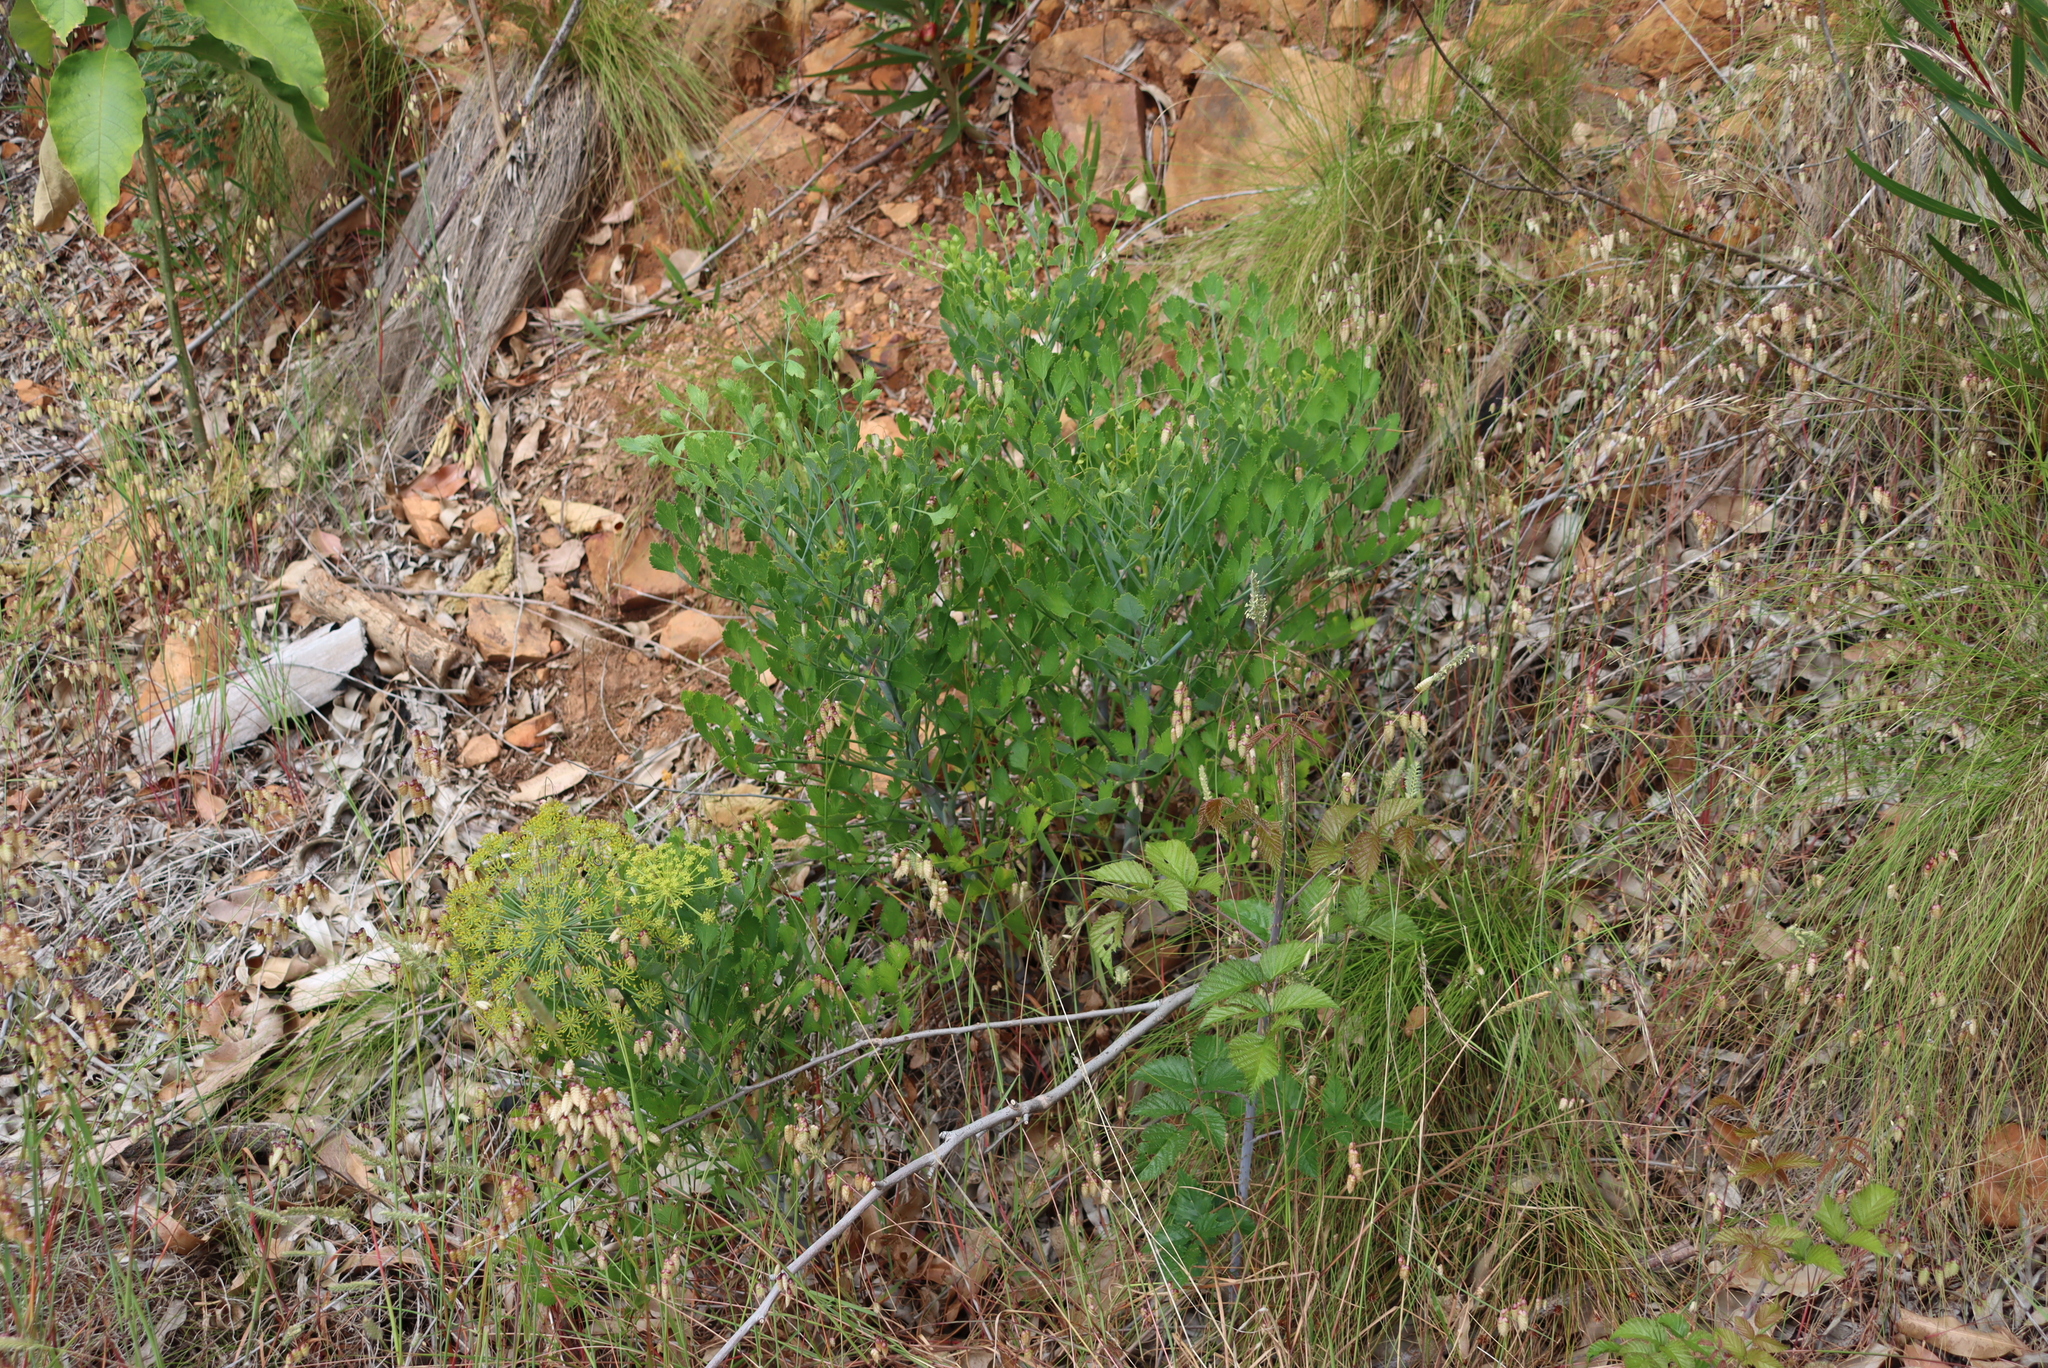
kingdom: Plantae
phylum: Tracheophyta
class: Magnoliopsida
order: Apiales
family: Apiaceae
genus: Notobubon
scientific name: Notobubon galbanum
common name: Blisterbush
